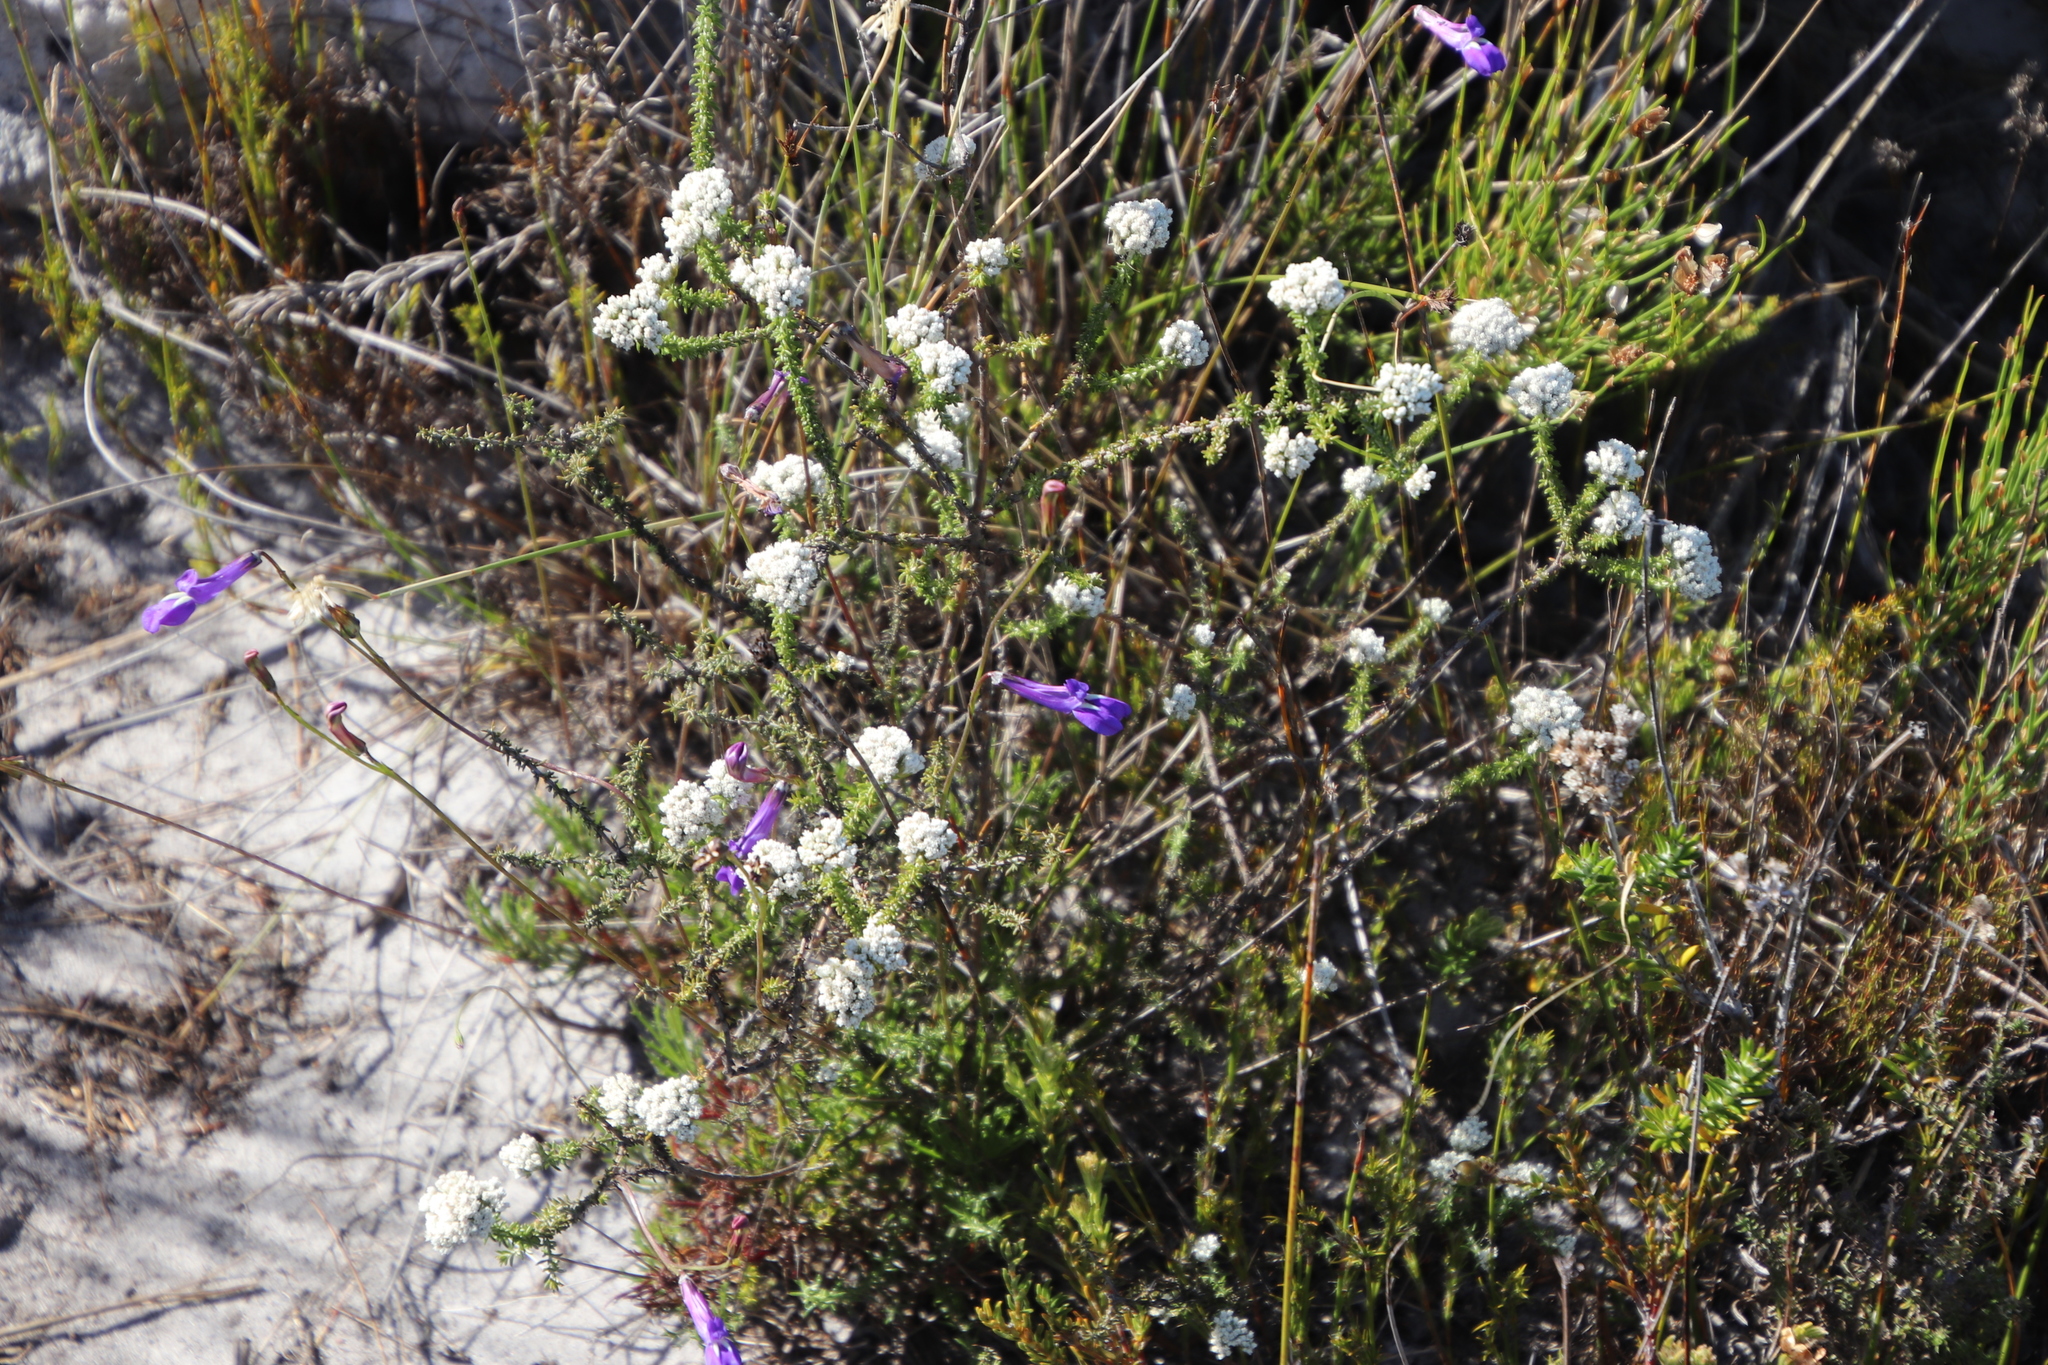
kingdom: Plantae
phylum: Tracheophyta
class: Magnoliopsida
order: Asterales
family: Campanulaceae
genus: Lobelia
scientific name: Lobelia coronopifolia
